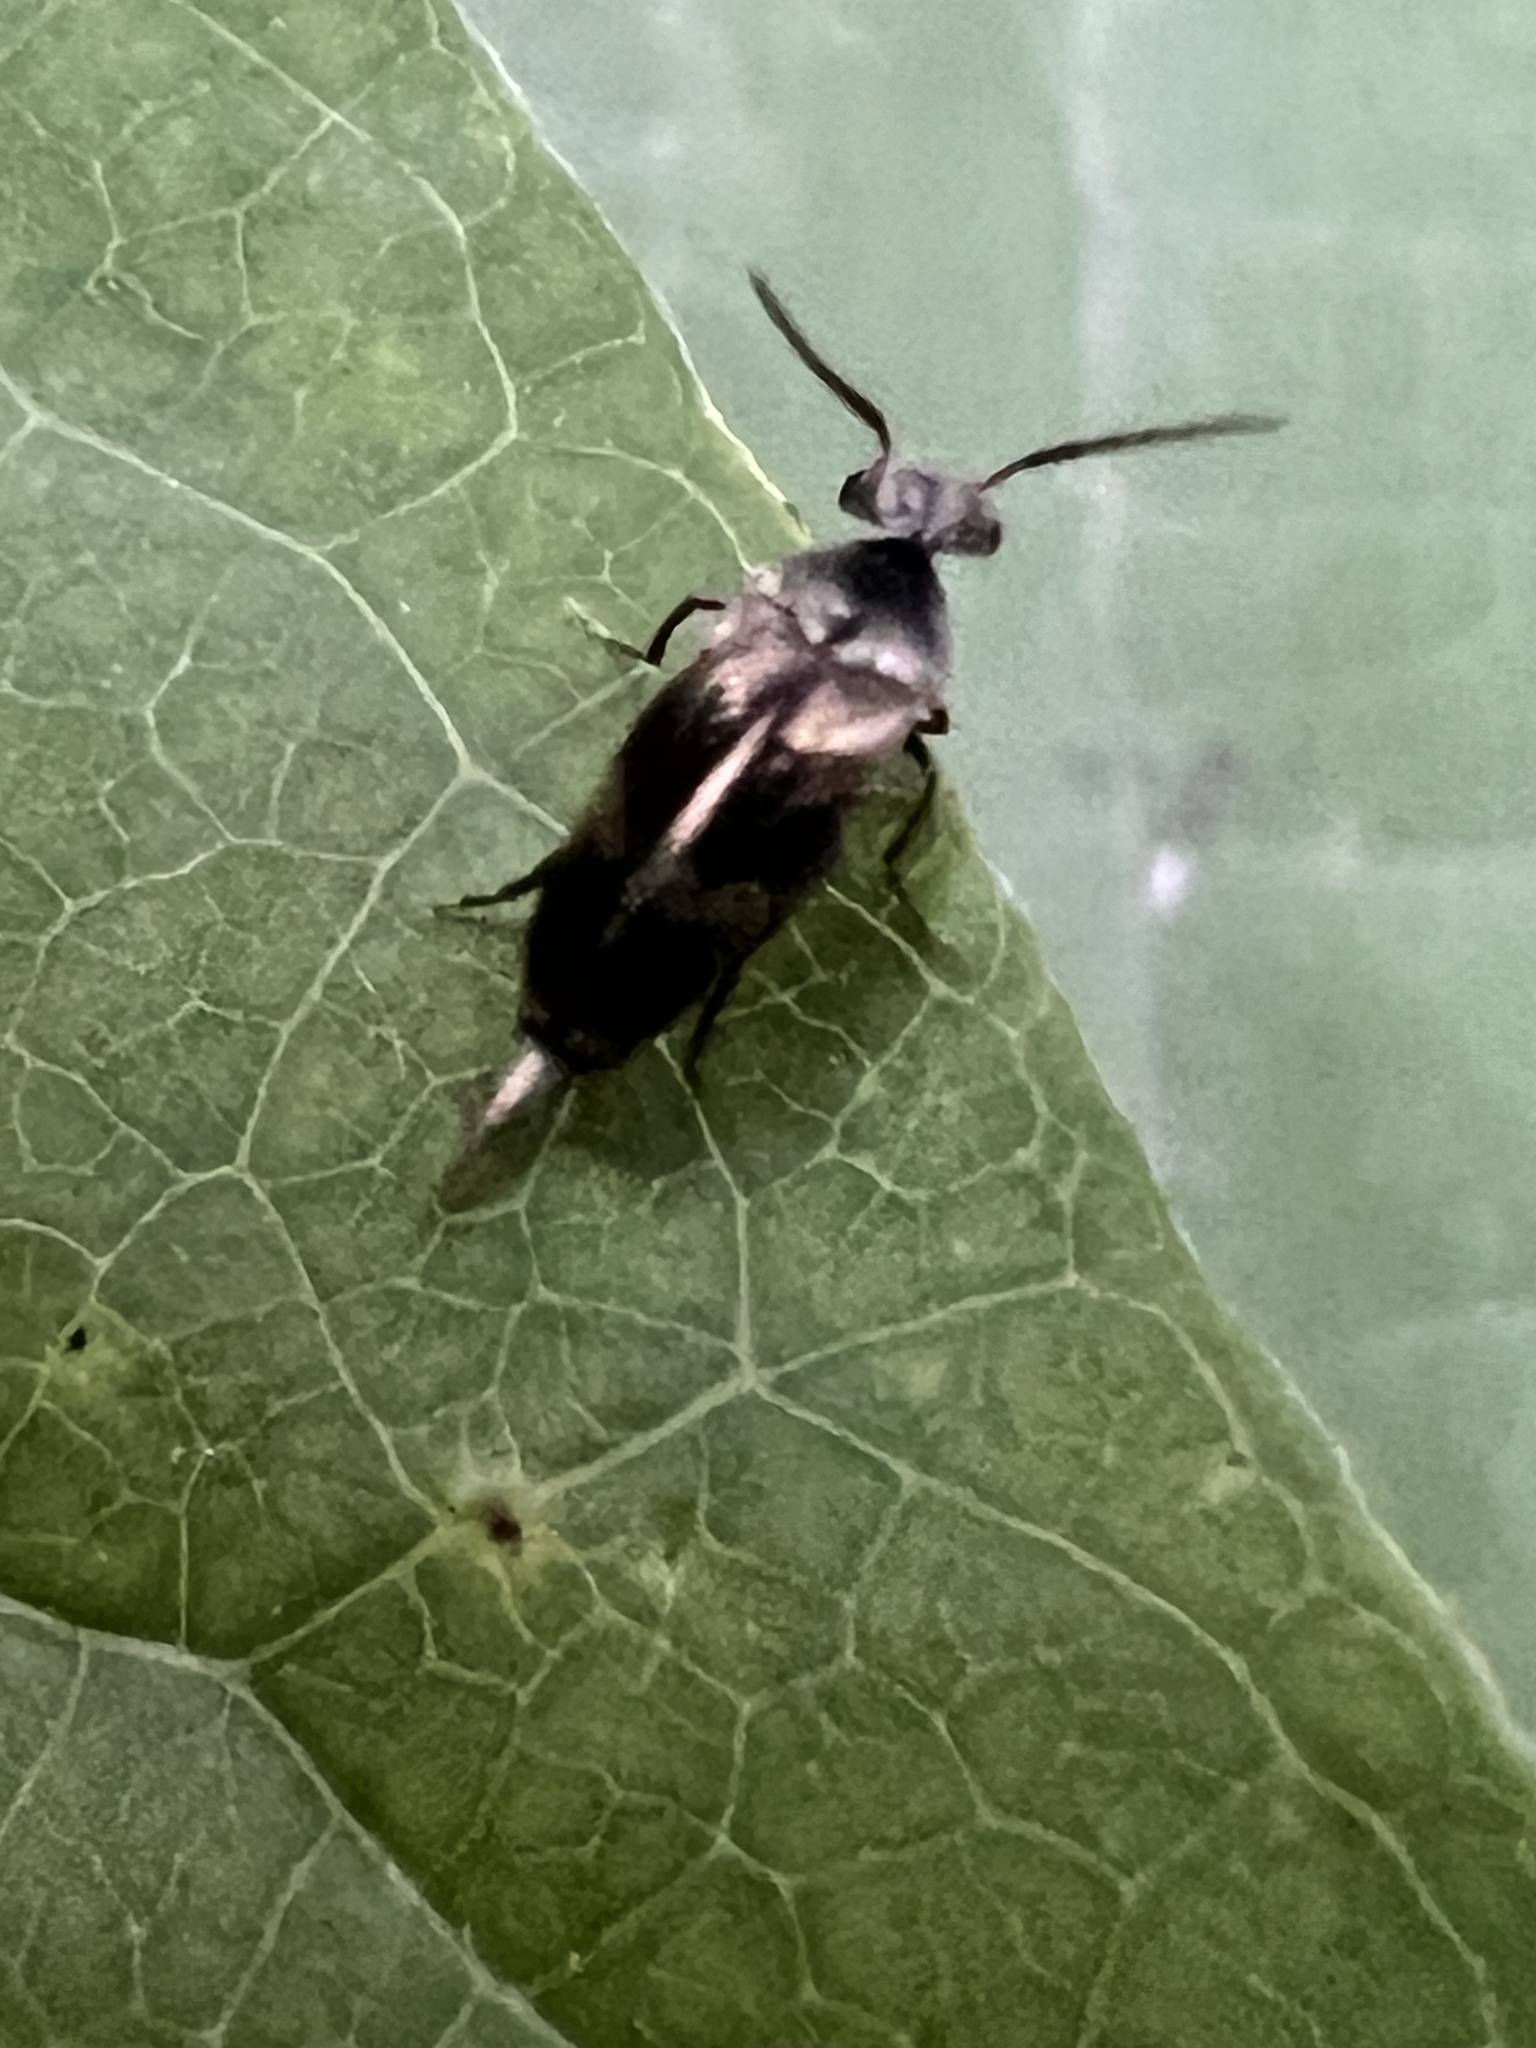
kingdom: Animalia
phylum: Arthropoda
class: Insecta
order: Coleoptera
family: Mordellidae
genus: Falsomordellistena
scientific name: Falsomordellistena discolor
